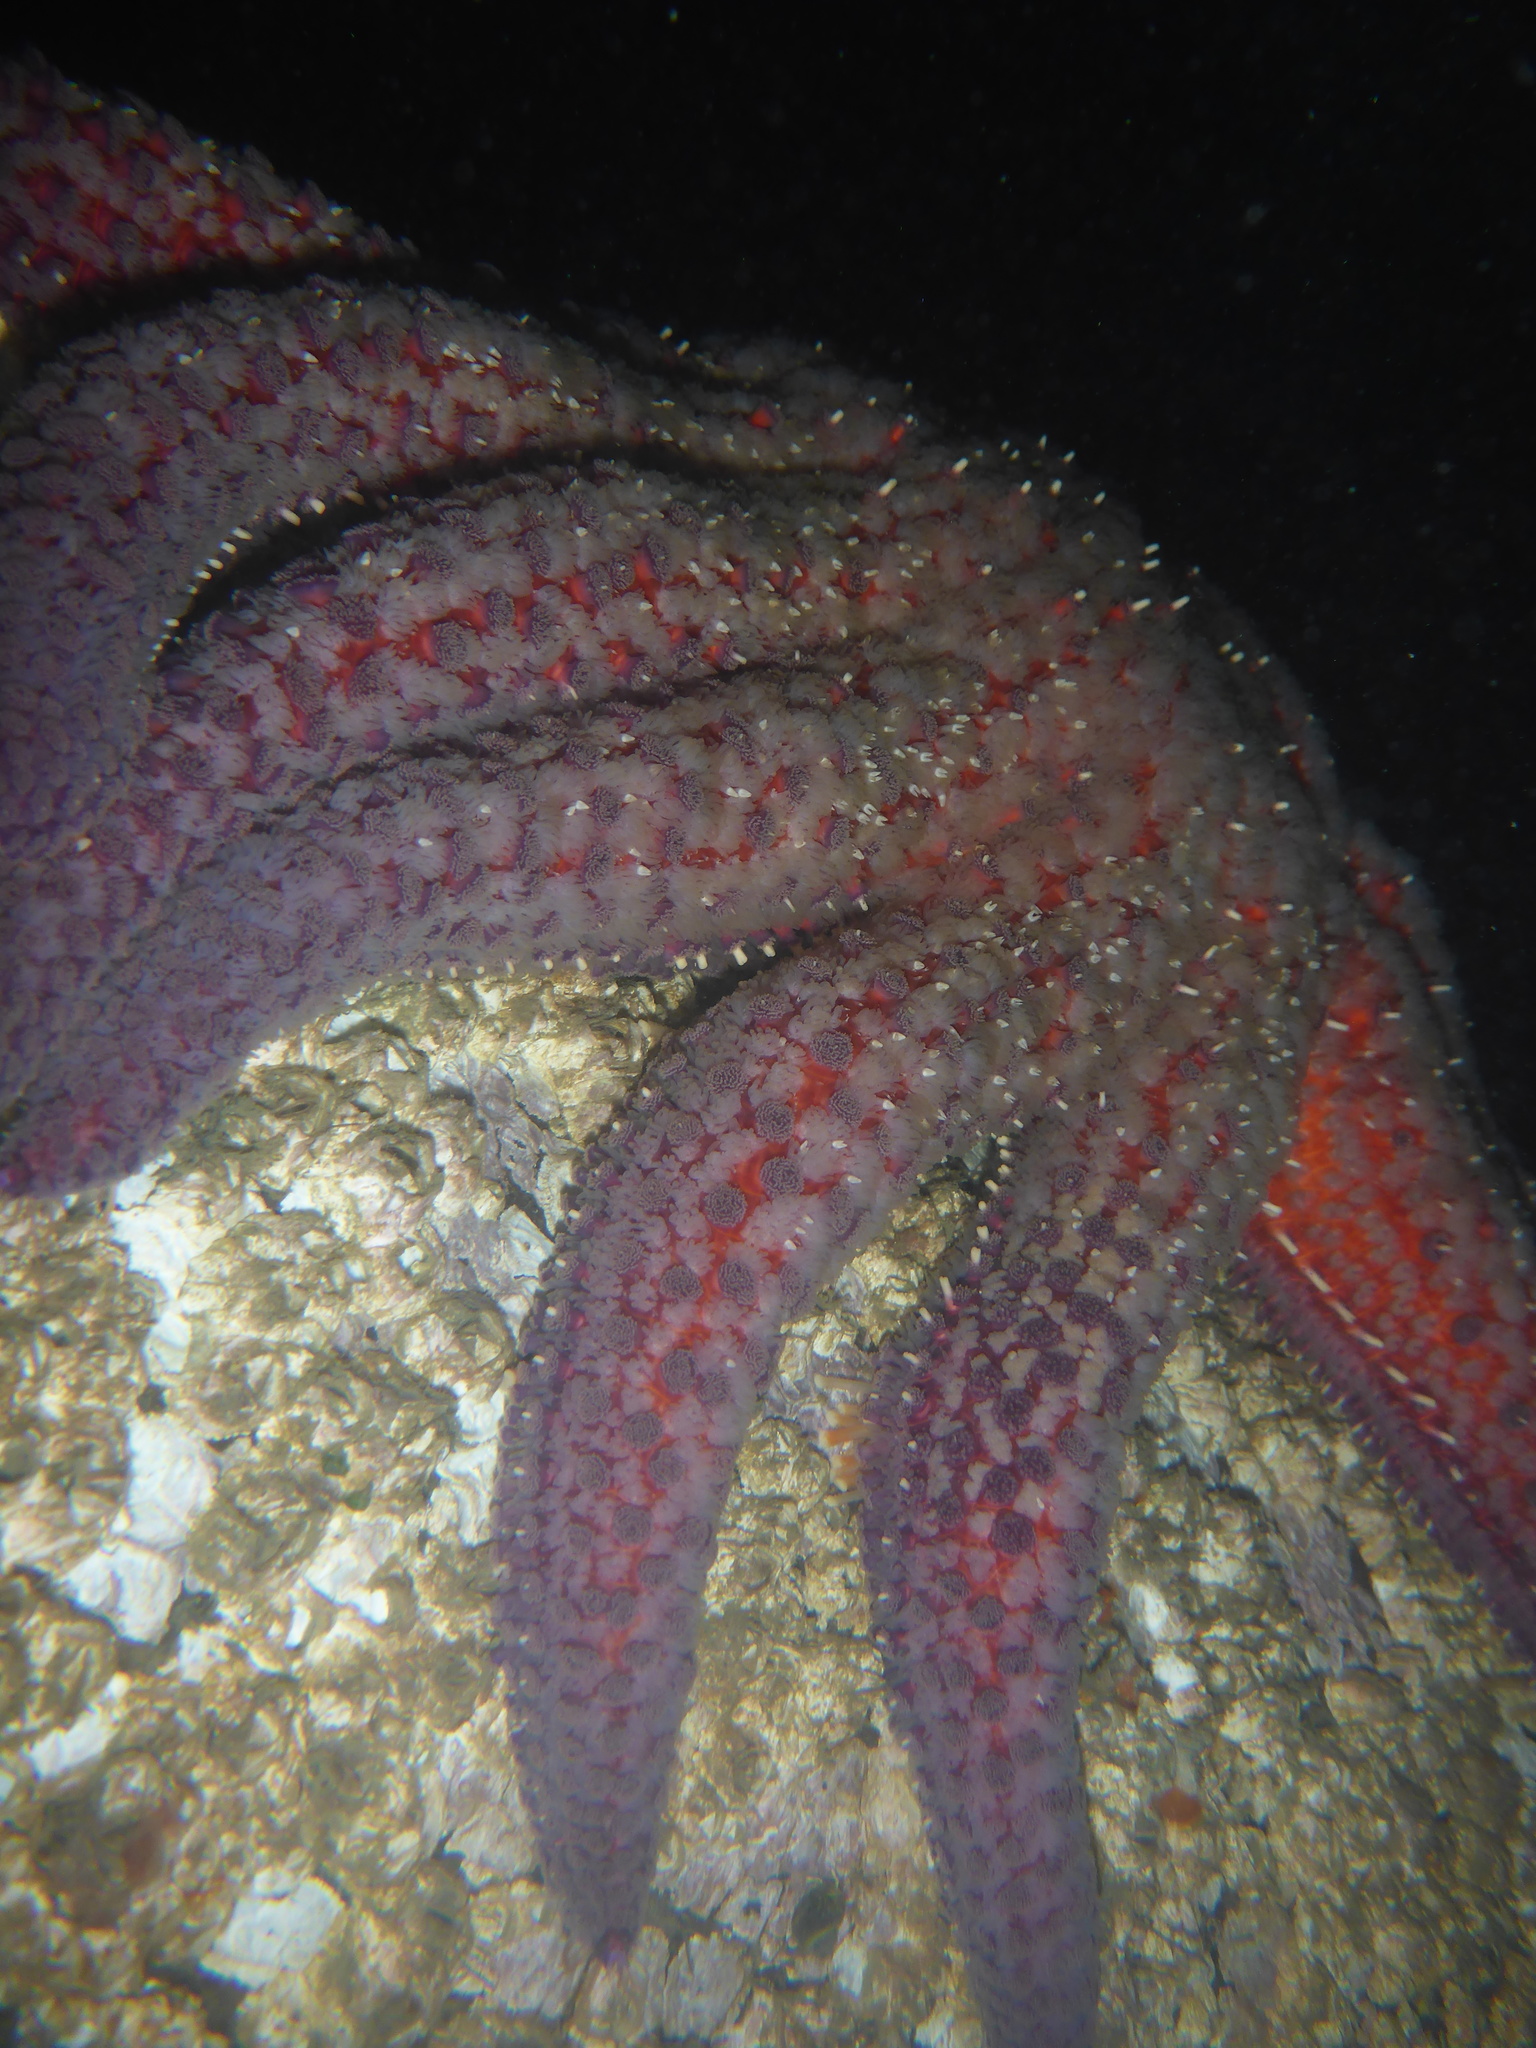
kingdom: Animalia
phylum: Echinodermata
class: Asteroidea
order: Forcipulatida
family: Asteriidae
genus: Pycnopodia
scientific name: Pycnopodia helianthoides
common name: Rag mop
